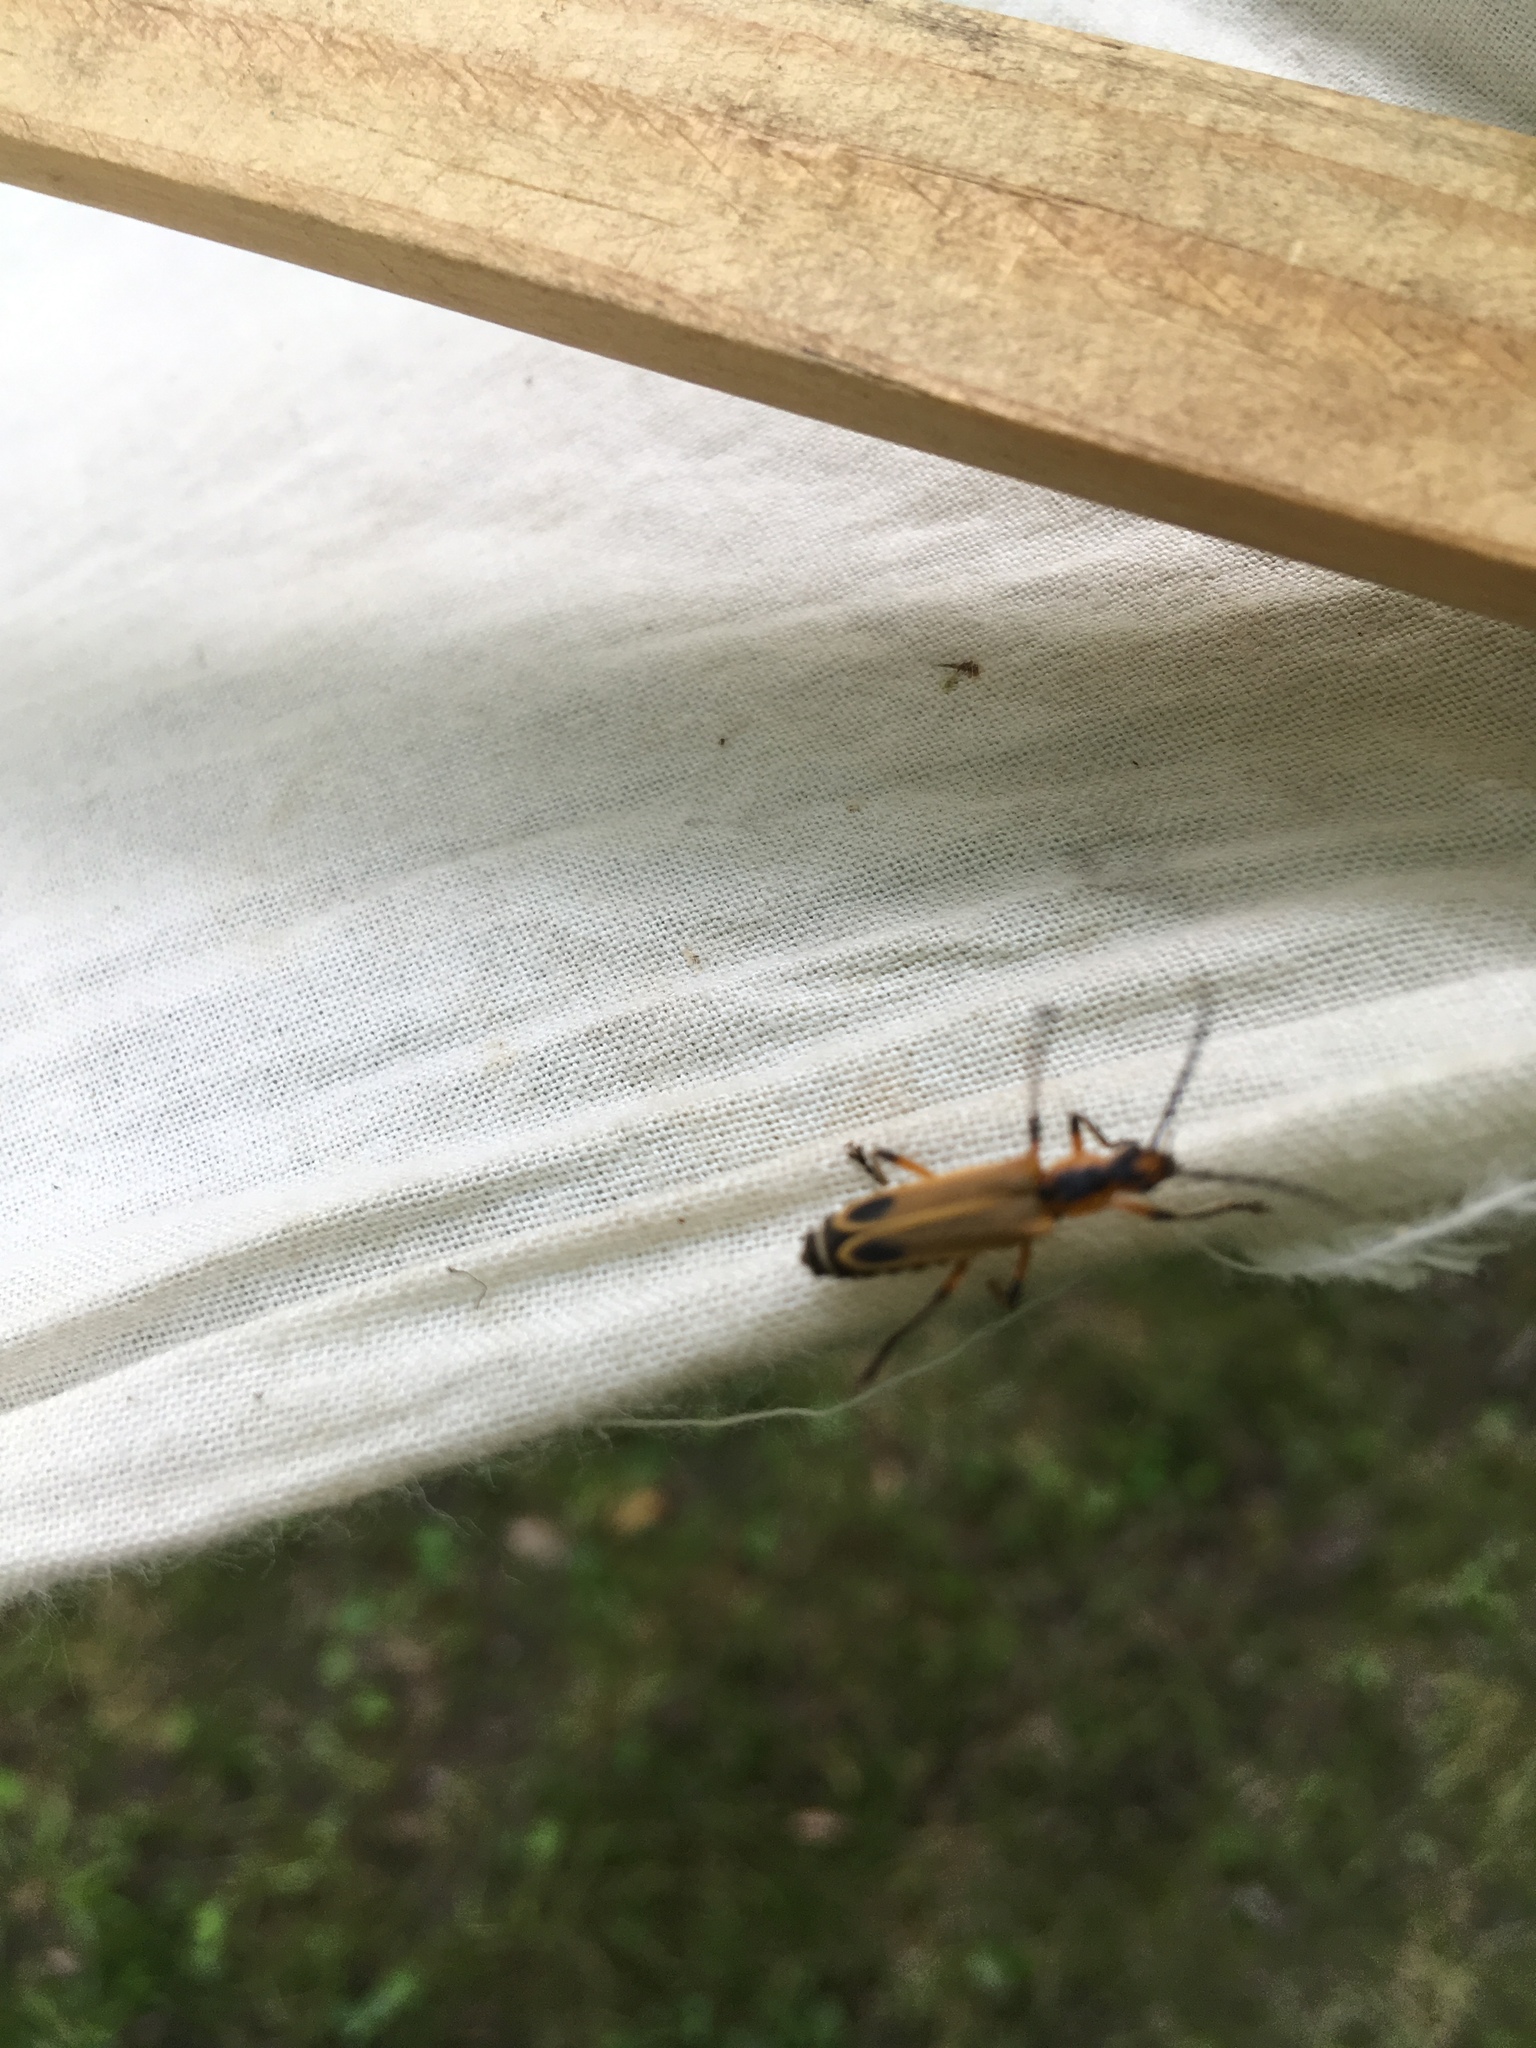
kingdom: Animalia
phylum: Arthropoda
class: Insecta
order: Coleoptera
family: Cantharidae
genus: Chauliognathus
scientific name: Chauliognathus marginatus
